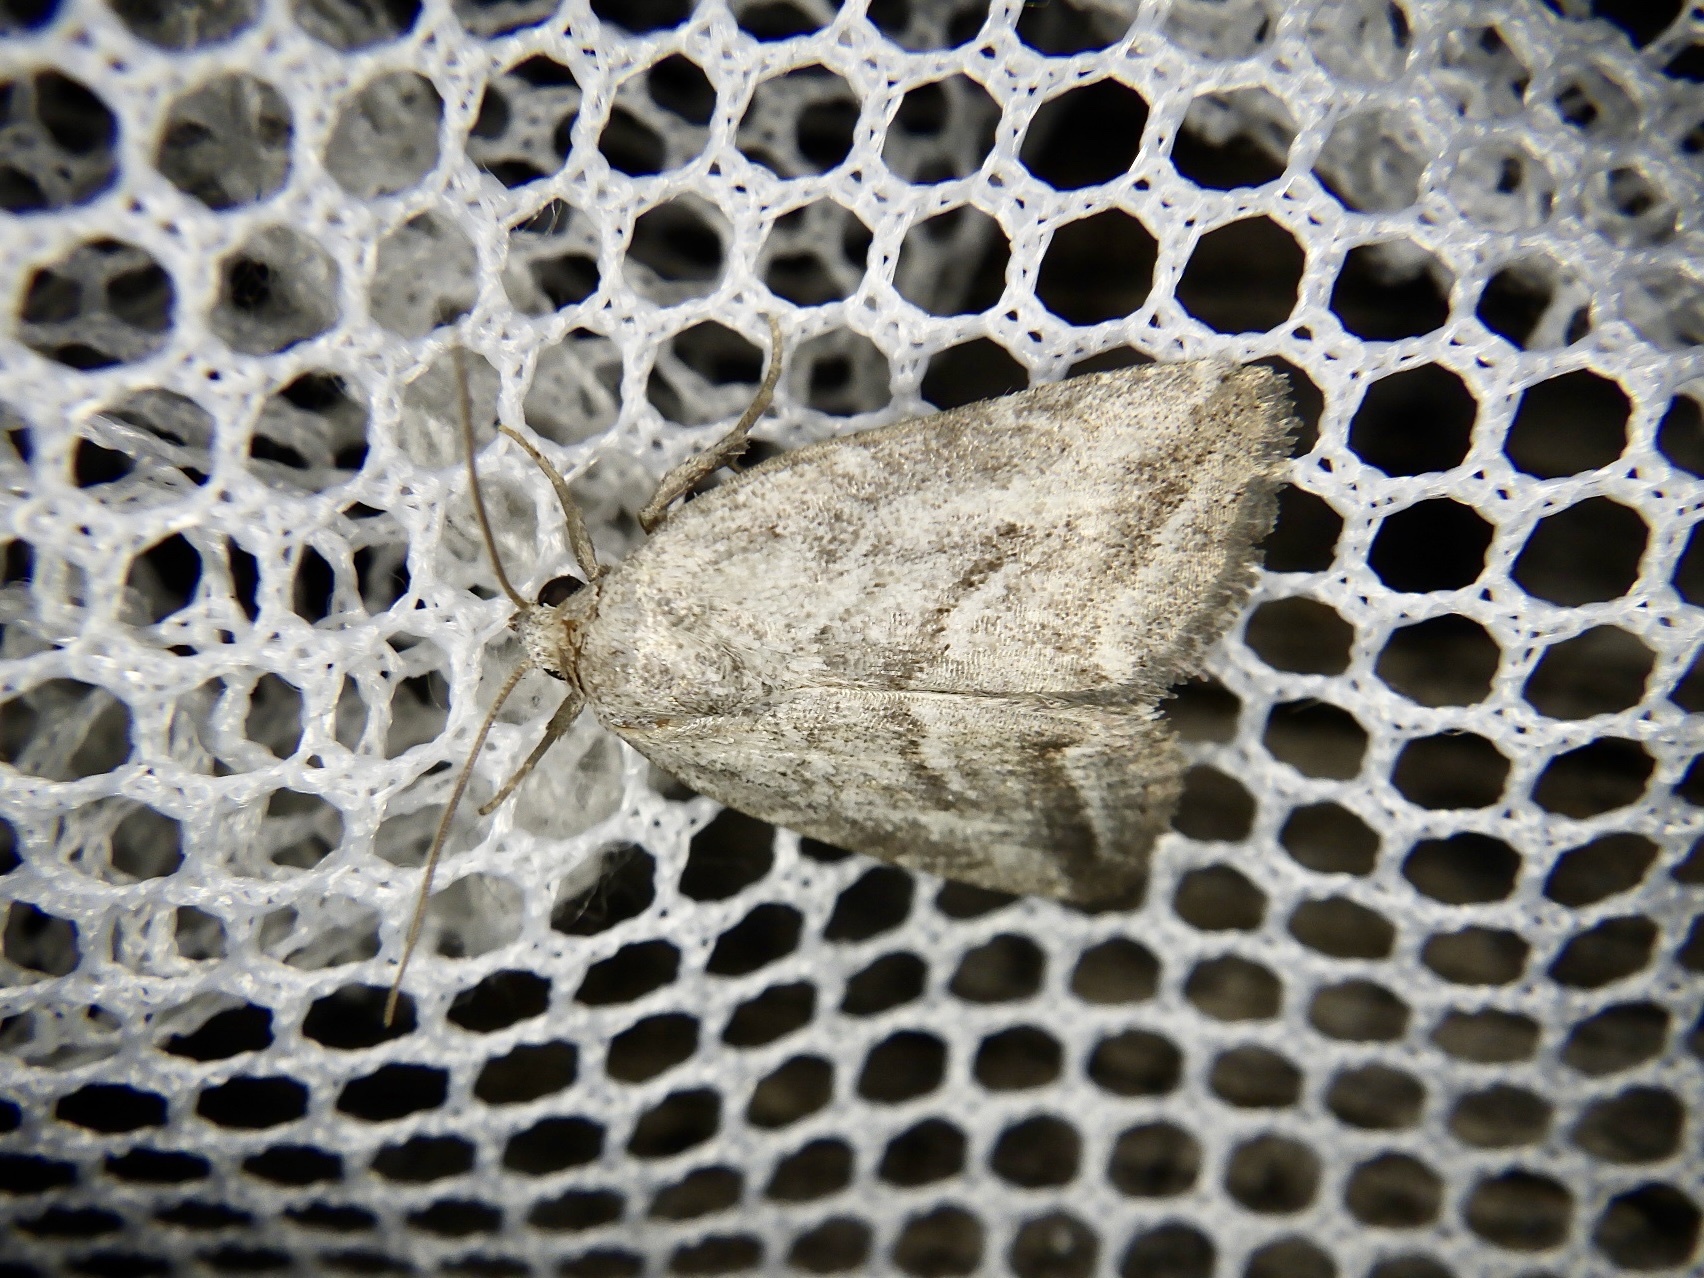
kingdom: Animalia
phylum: Arthropoda
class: Insecta
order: Lepidoptera
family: Noctuidae
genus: Phyllophila
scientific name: Phyllophila obliterata
